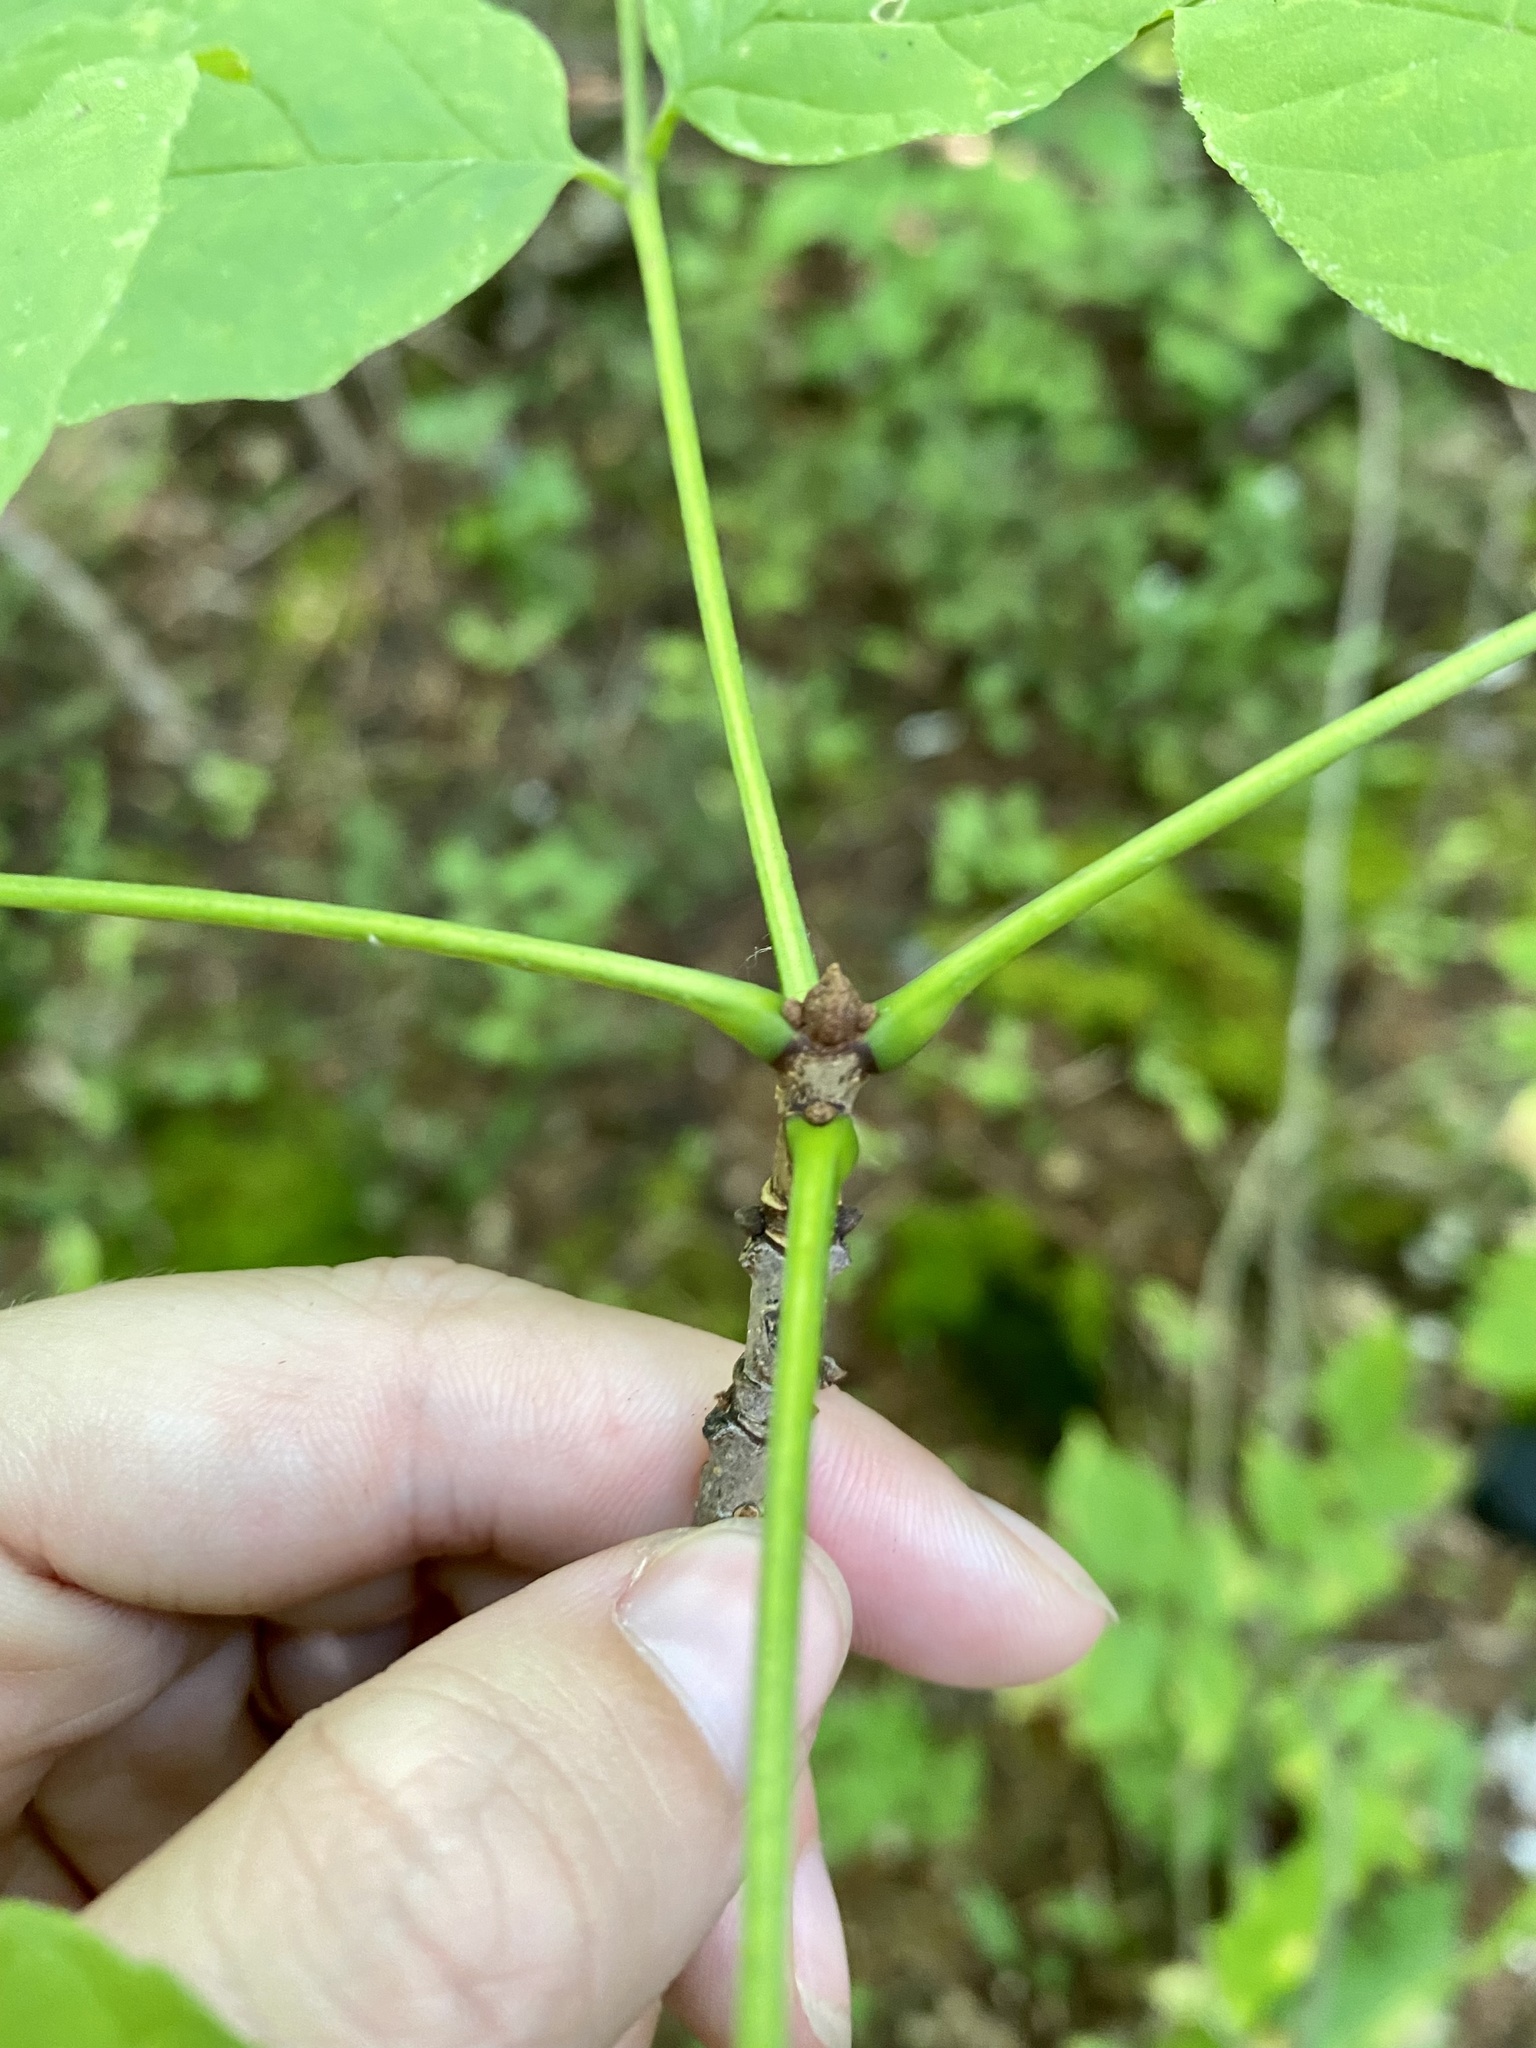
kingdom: Plantae
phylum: Tracheophyta
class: Magnoliopsida
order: Lamiales
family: Oleaceae
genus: Fraxinus
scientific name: Fraxinus americana
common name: White ash
